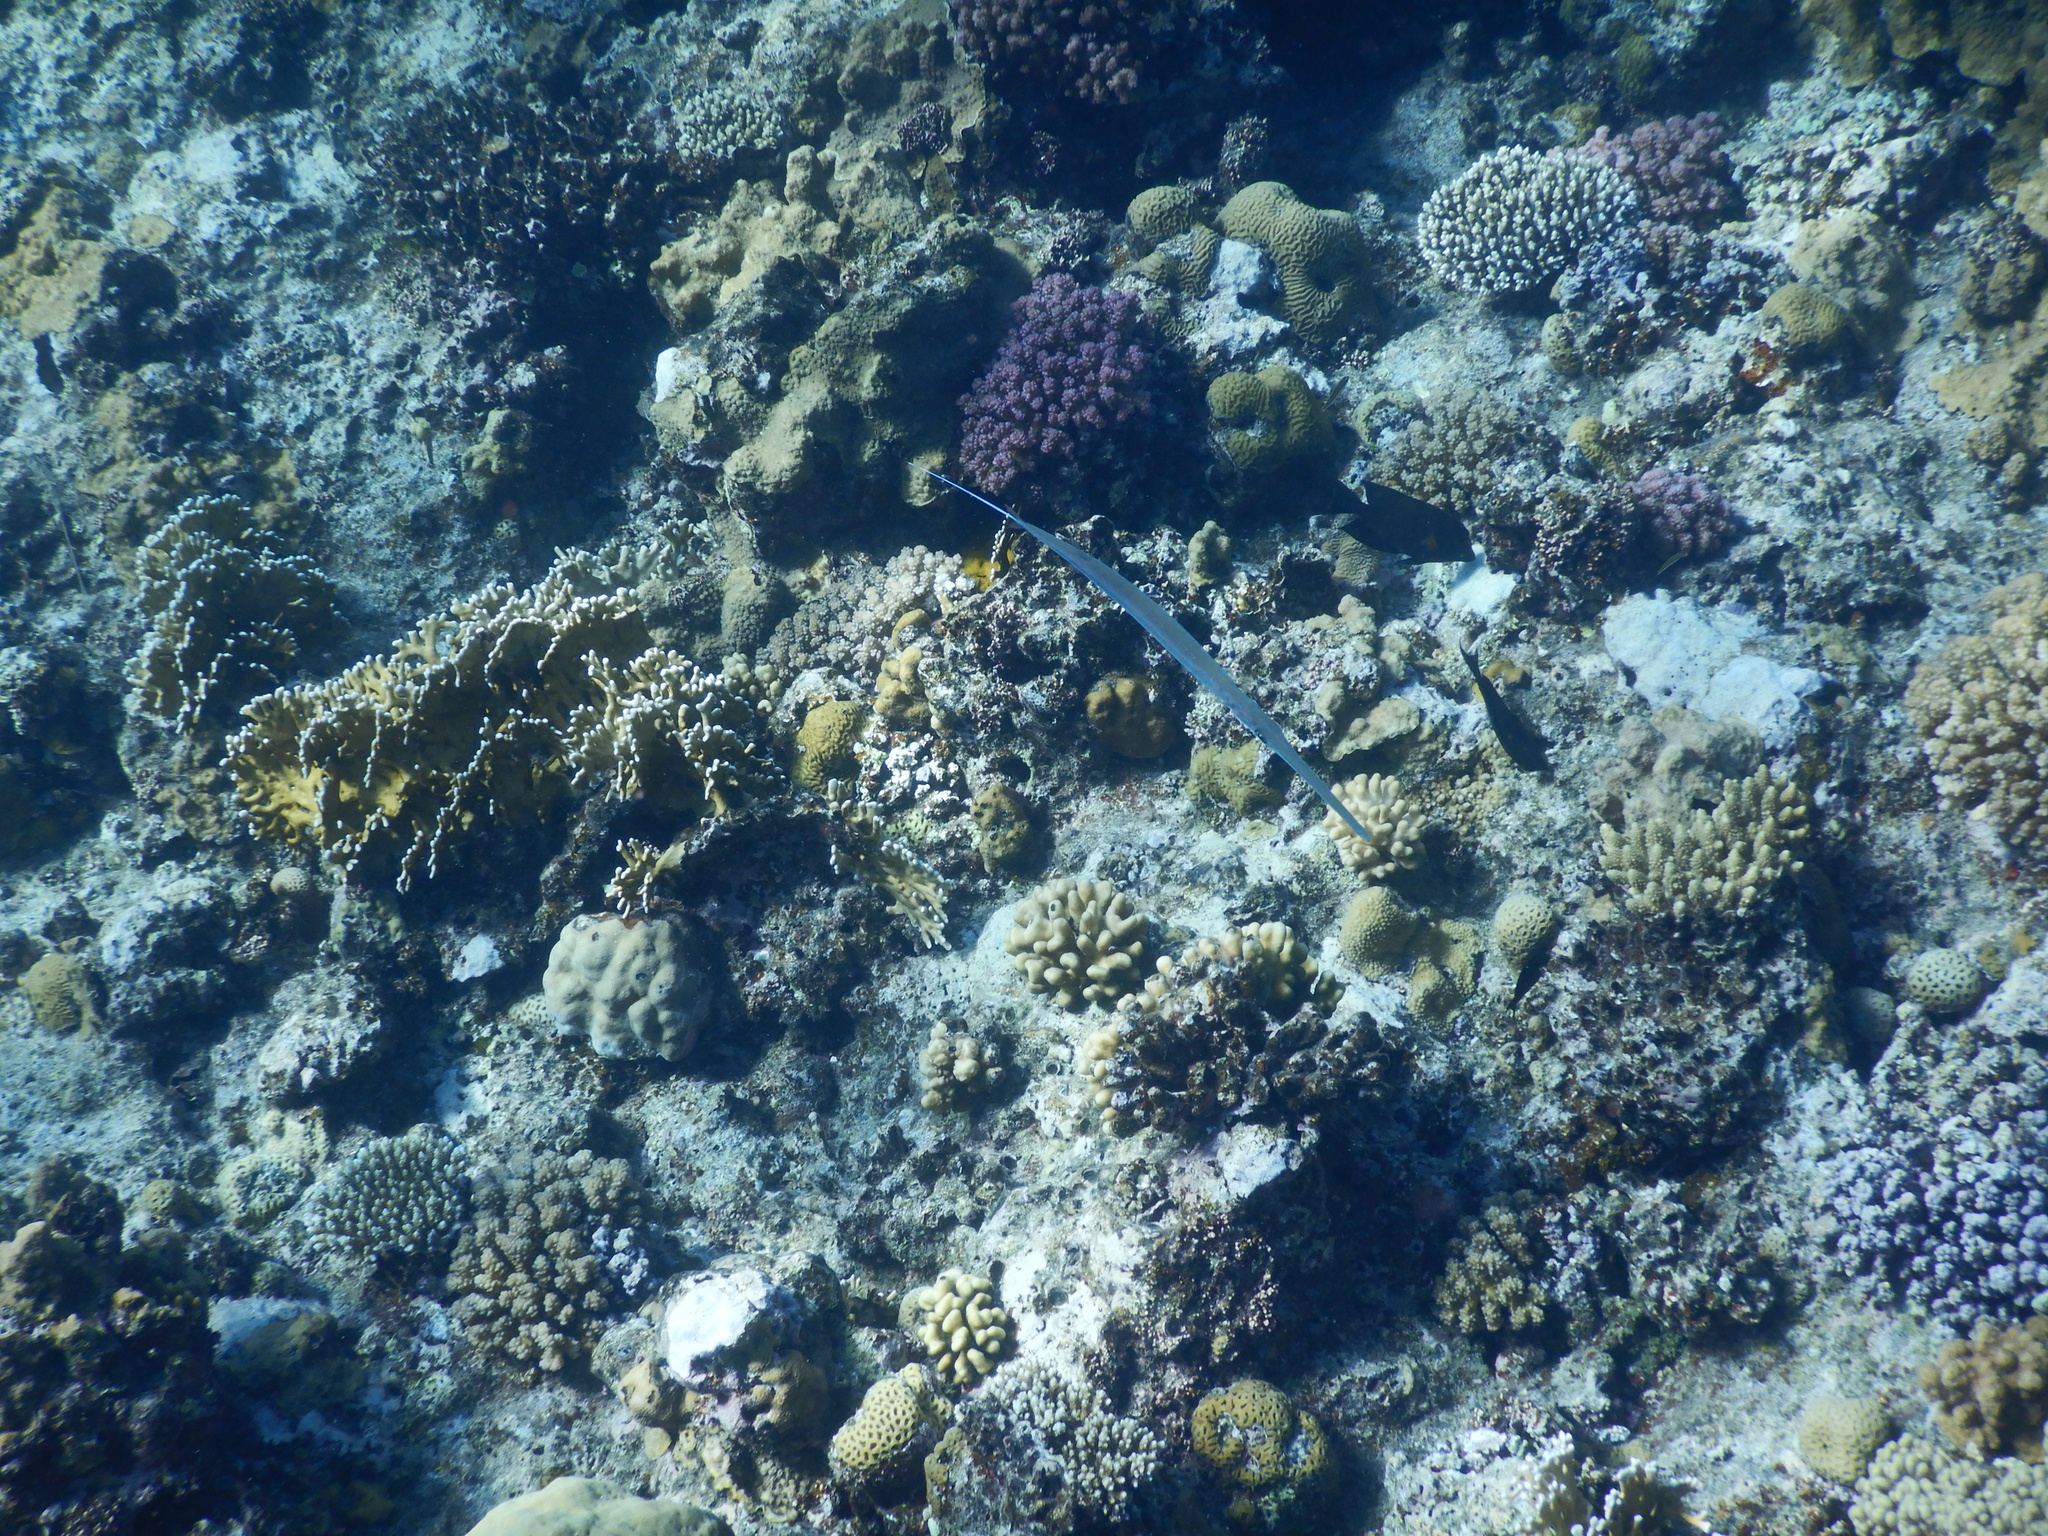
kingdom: Animalia
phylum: Chordata
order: Syngnathiformes
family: Fistulariidae
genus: Fistularia
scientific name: Fistularia commersonii
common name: Bluespotted cornetfish
